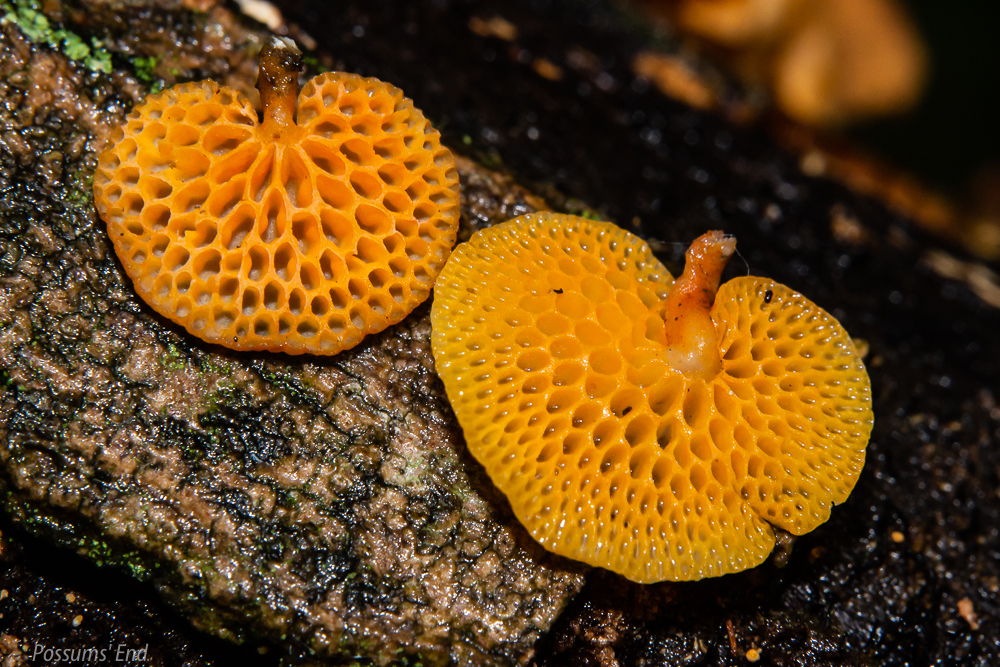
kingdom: Fungi
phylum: Basidiomycota
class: Agaricomycetes
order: Agaricales
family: Mycenaceae
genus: Favolaschia
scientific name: Favolaschia claudopus
